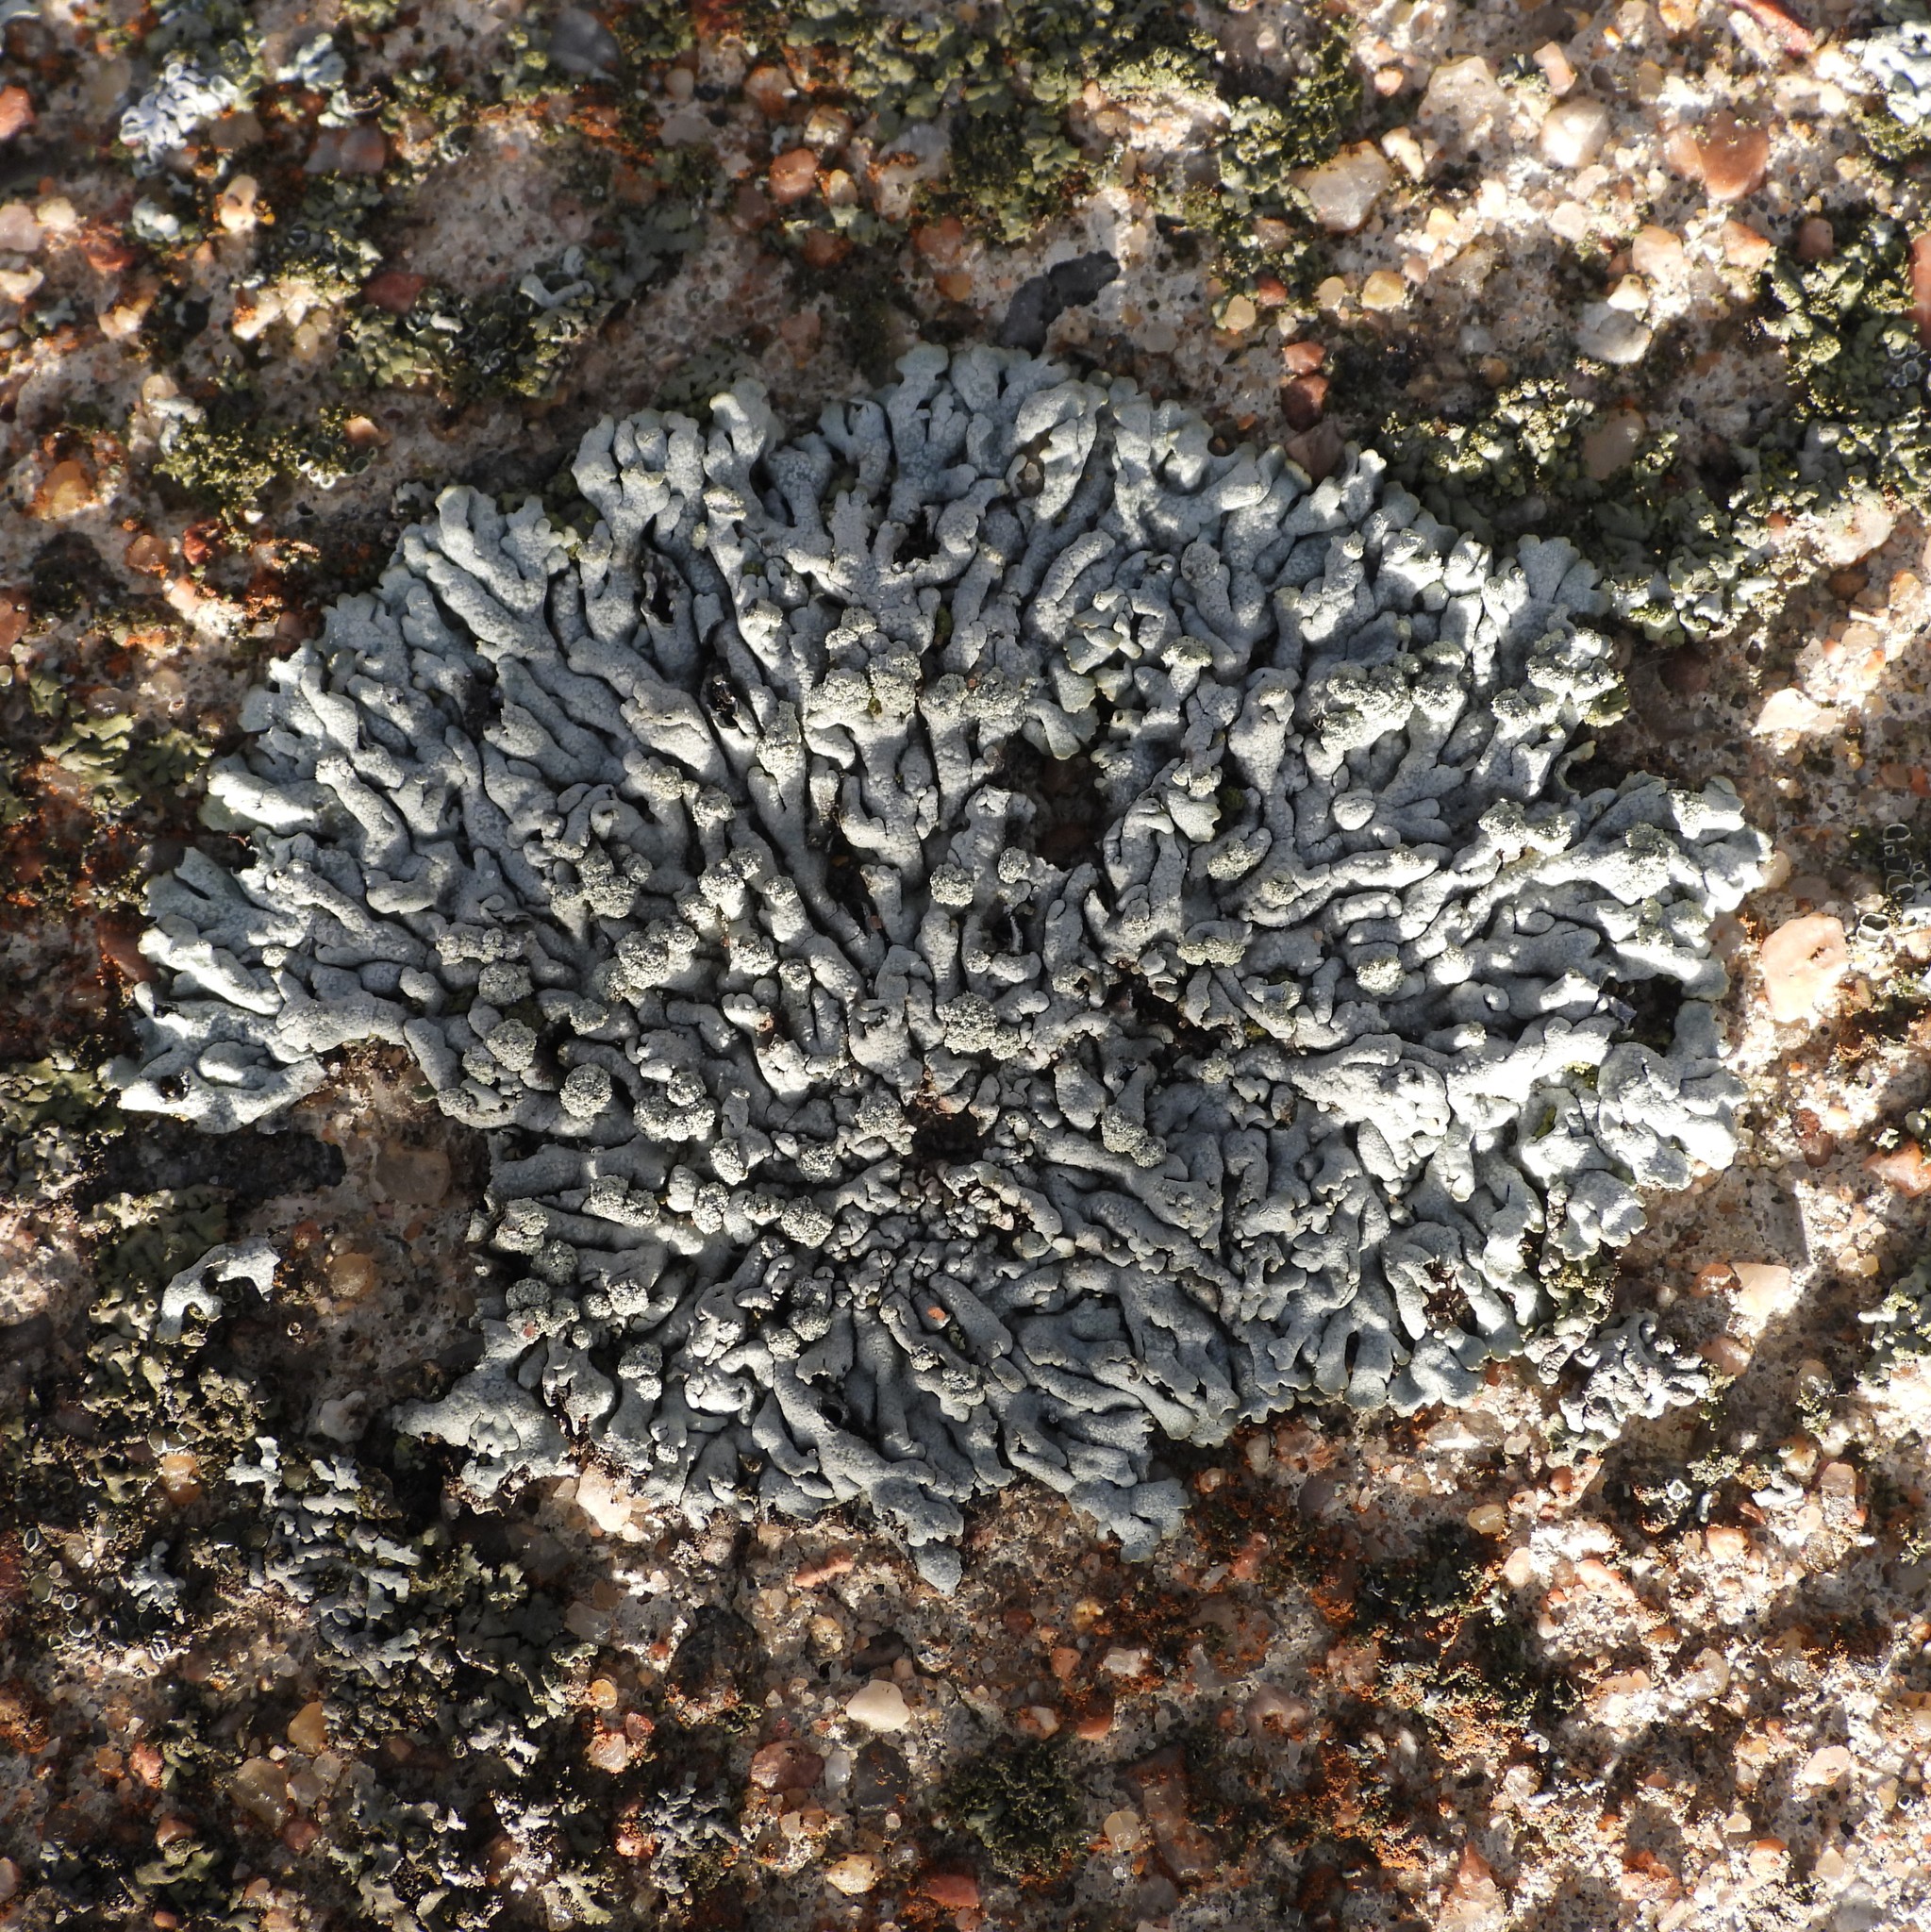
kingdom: Fungi
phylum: Ascomycota
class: Lecanoromycetes
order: Caliciales
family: Physciaceae
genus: Physcia
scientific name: Physcia caesia
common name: Blue-gray rosette lichen
